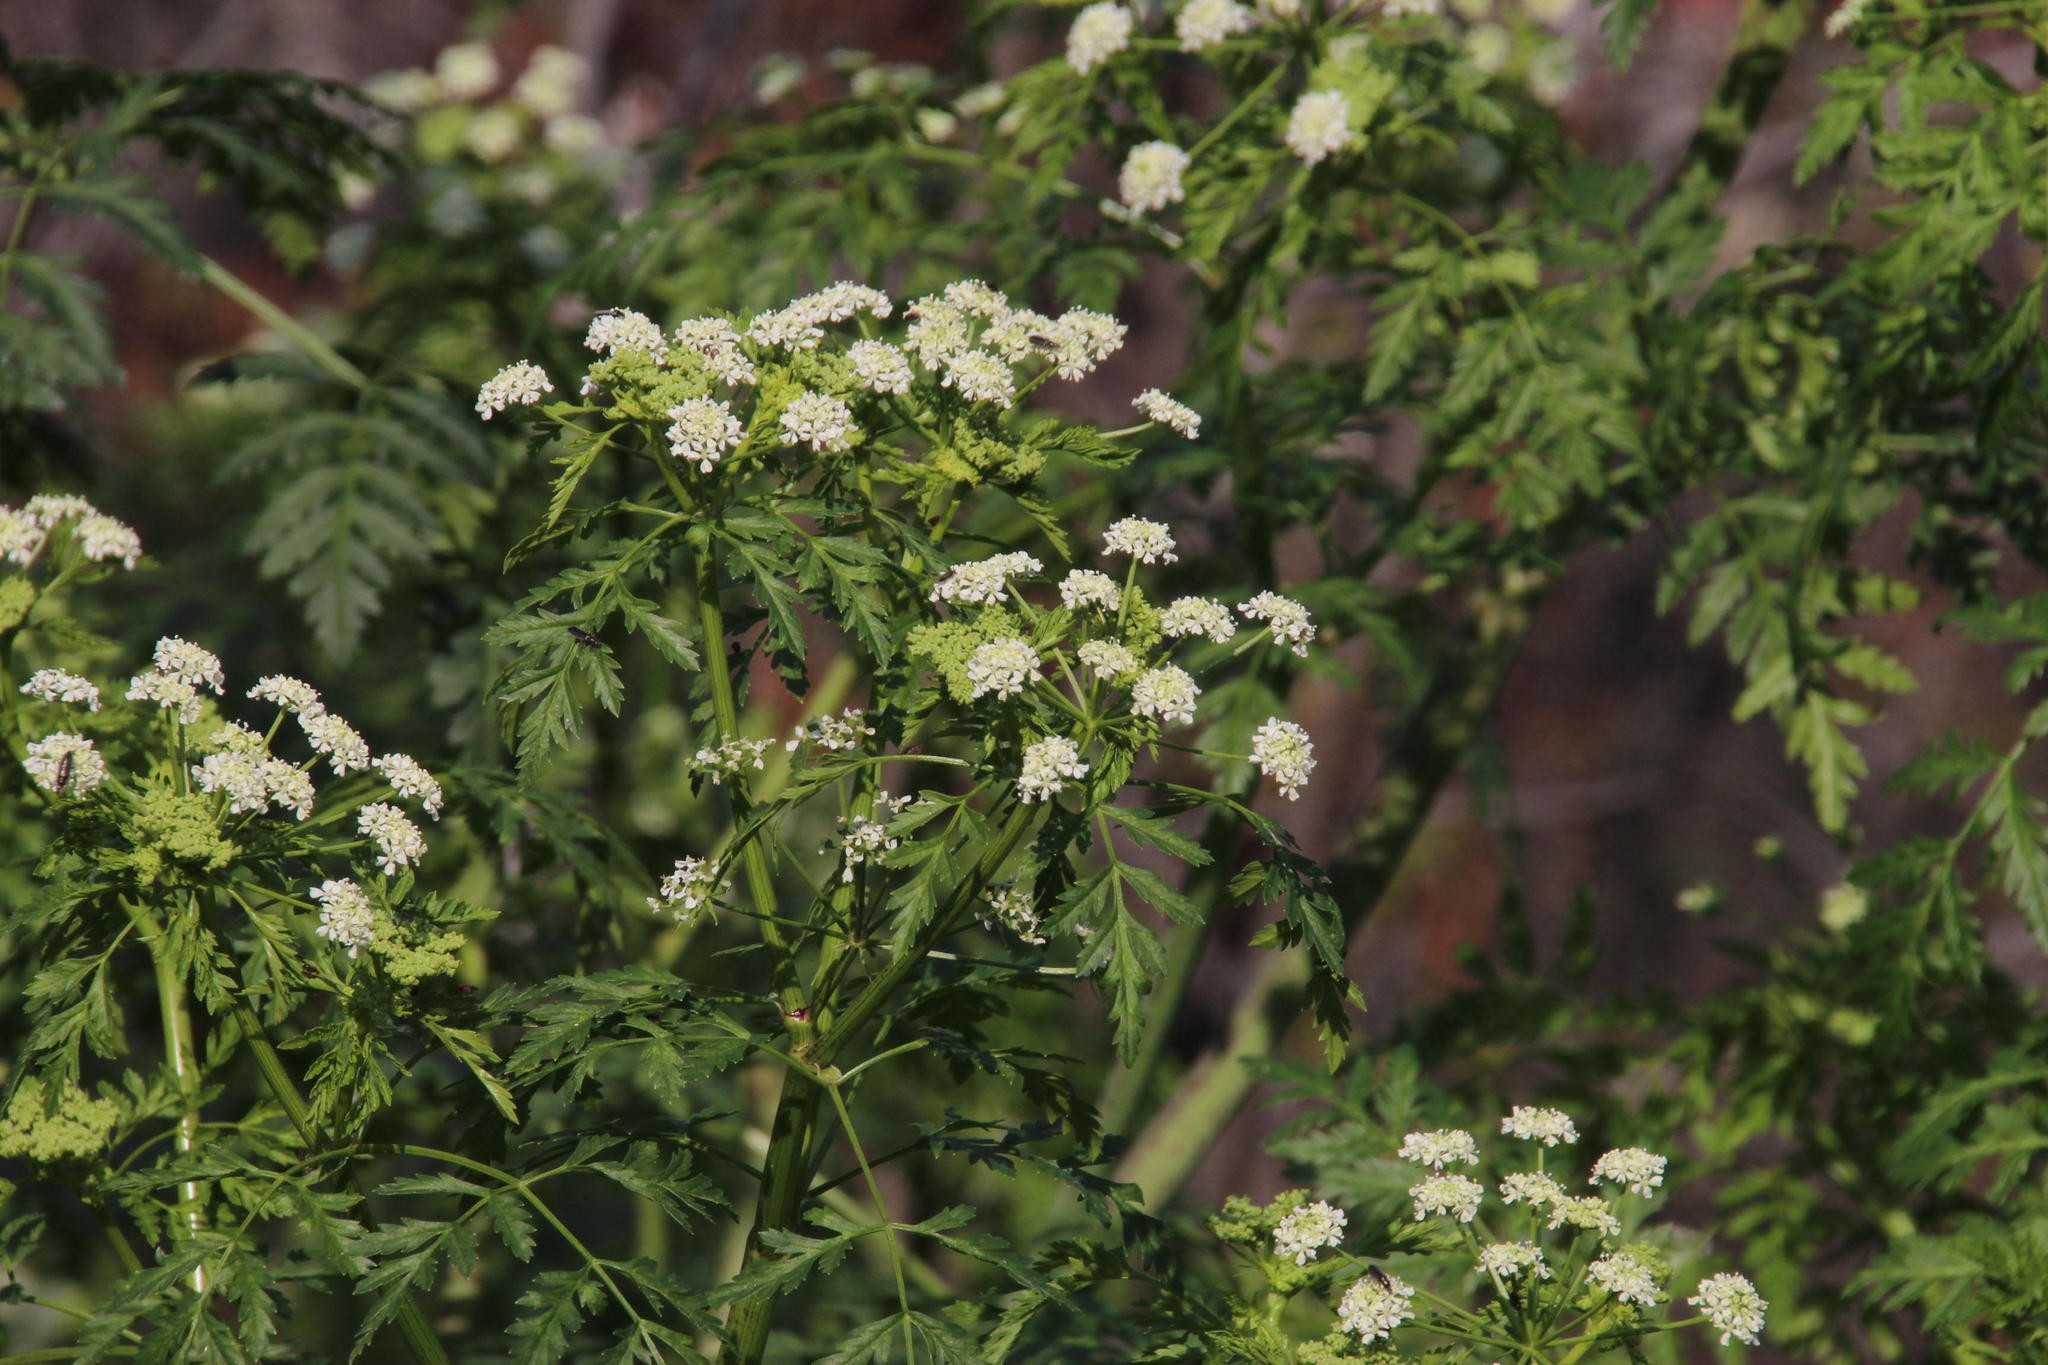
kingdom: Plantae
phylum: Tracheophyta
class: Magnoliopsida
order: Apiales
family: Apiaceae
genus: Conium
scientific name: Conium maculatum
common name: Hemlock
